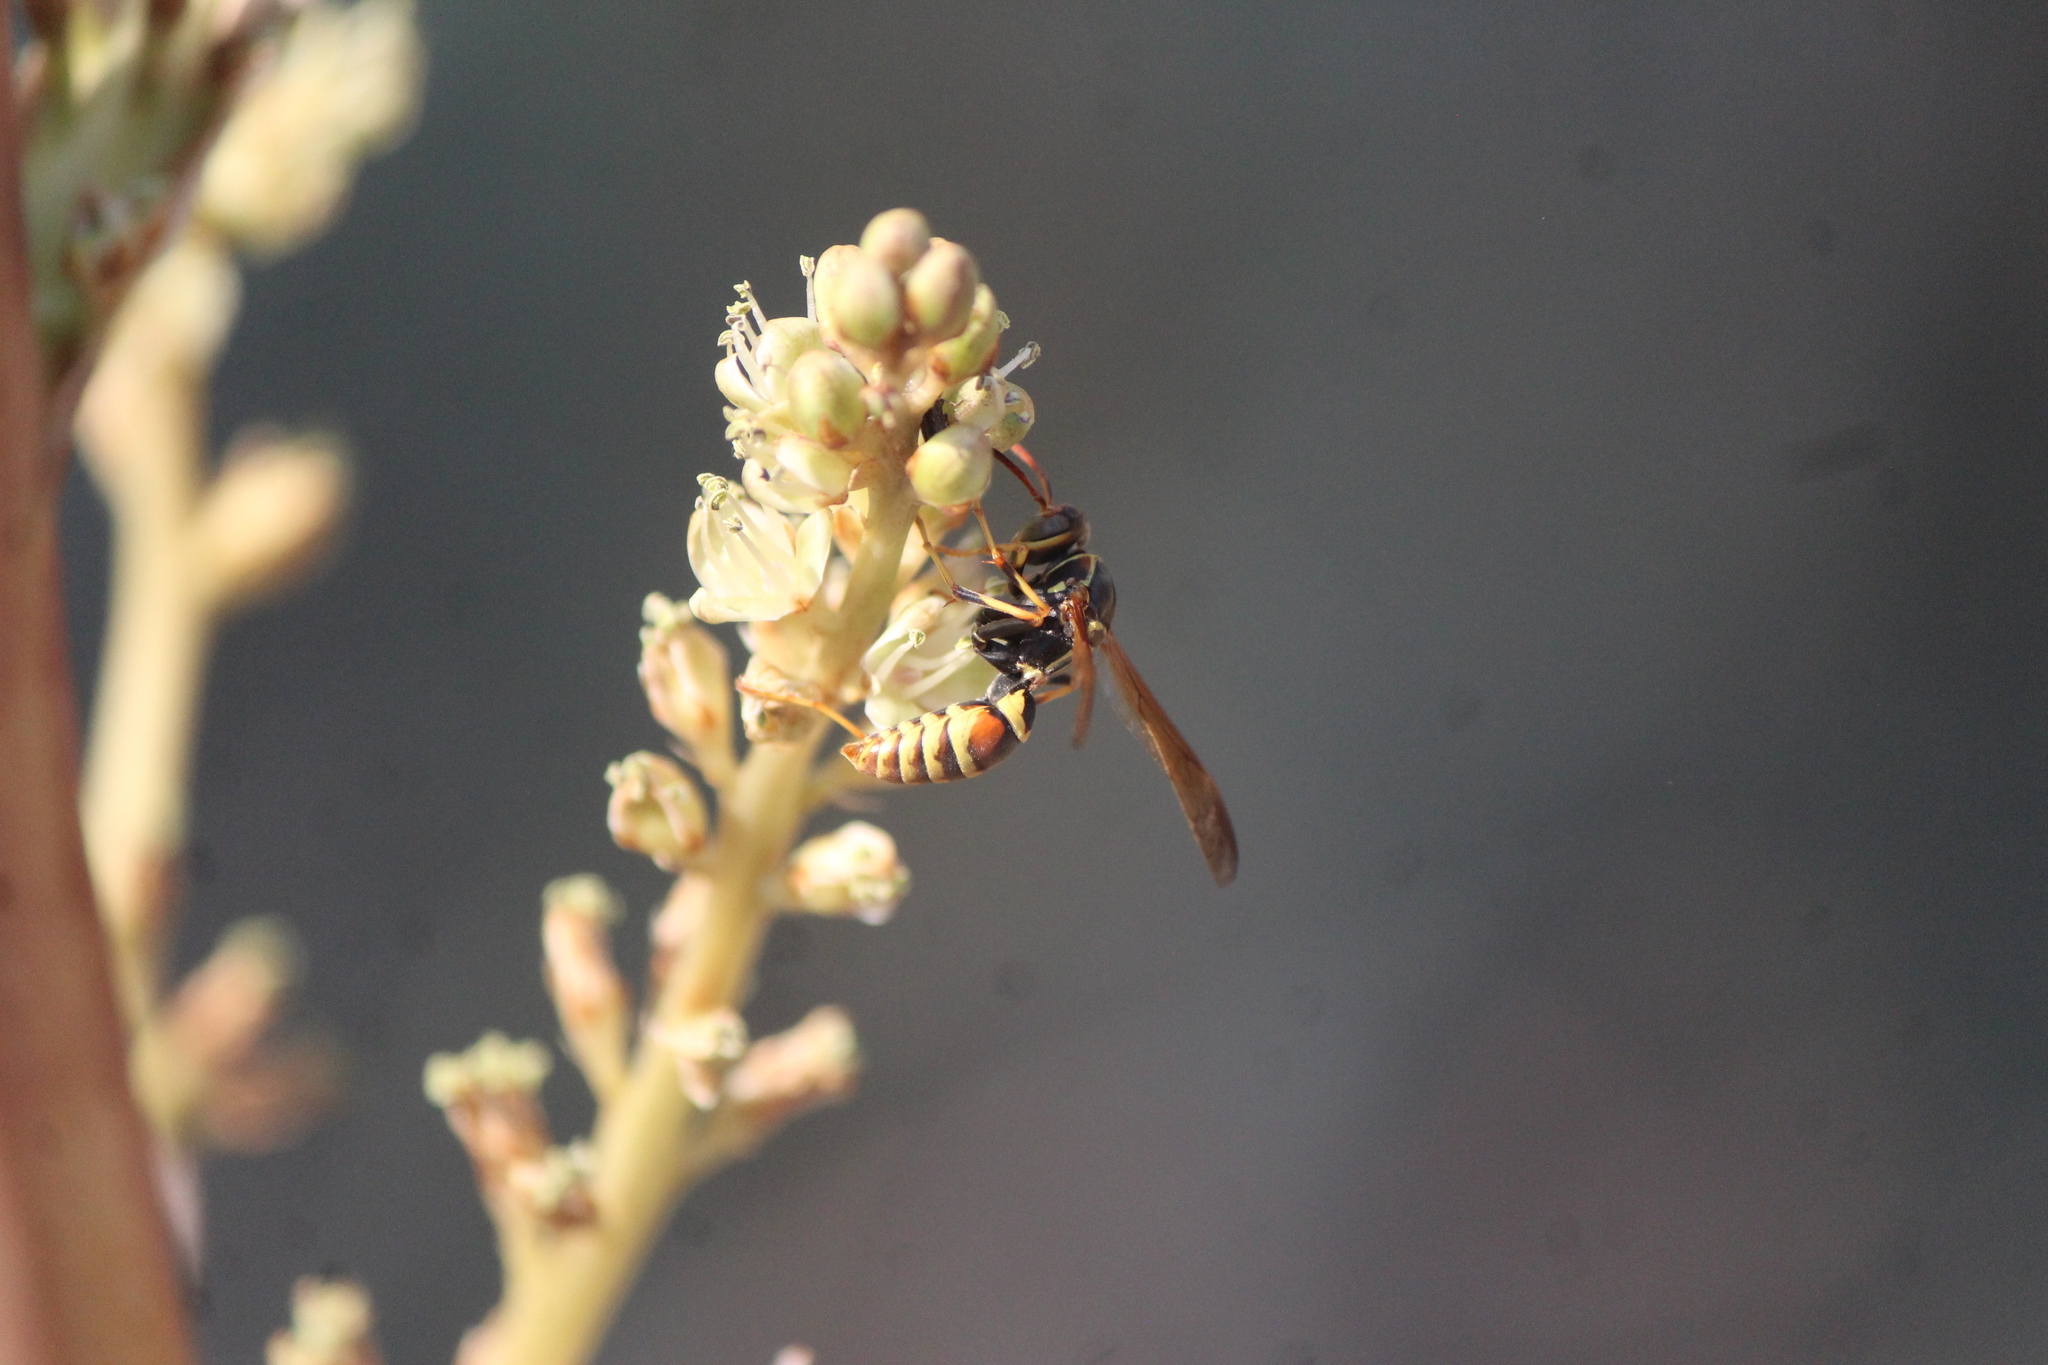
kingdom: Animalia
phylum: Arthropoda
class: Insecta
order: Hymenoptera
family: Eumenidae
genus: Polistes
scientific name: Polistes dorsalis
